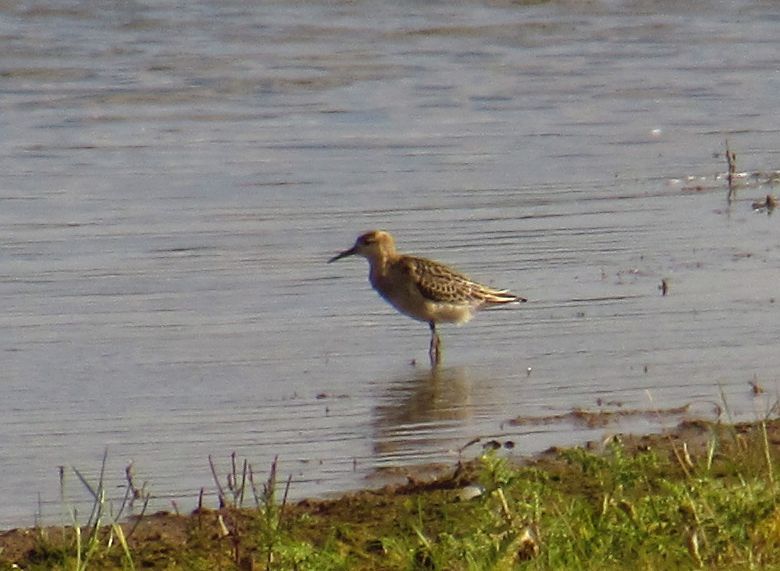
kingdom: Animalia
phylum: Chordata
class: Aves
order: Charadriiformes
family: Scolopacidae
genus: Calidris
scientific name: Calidris pugnax
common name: Ruff
